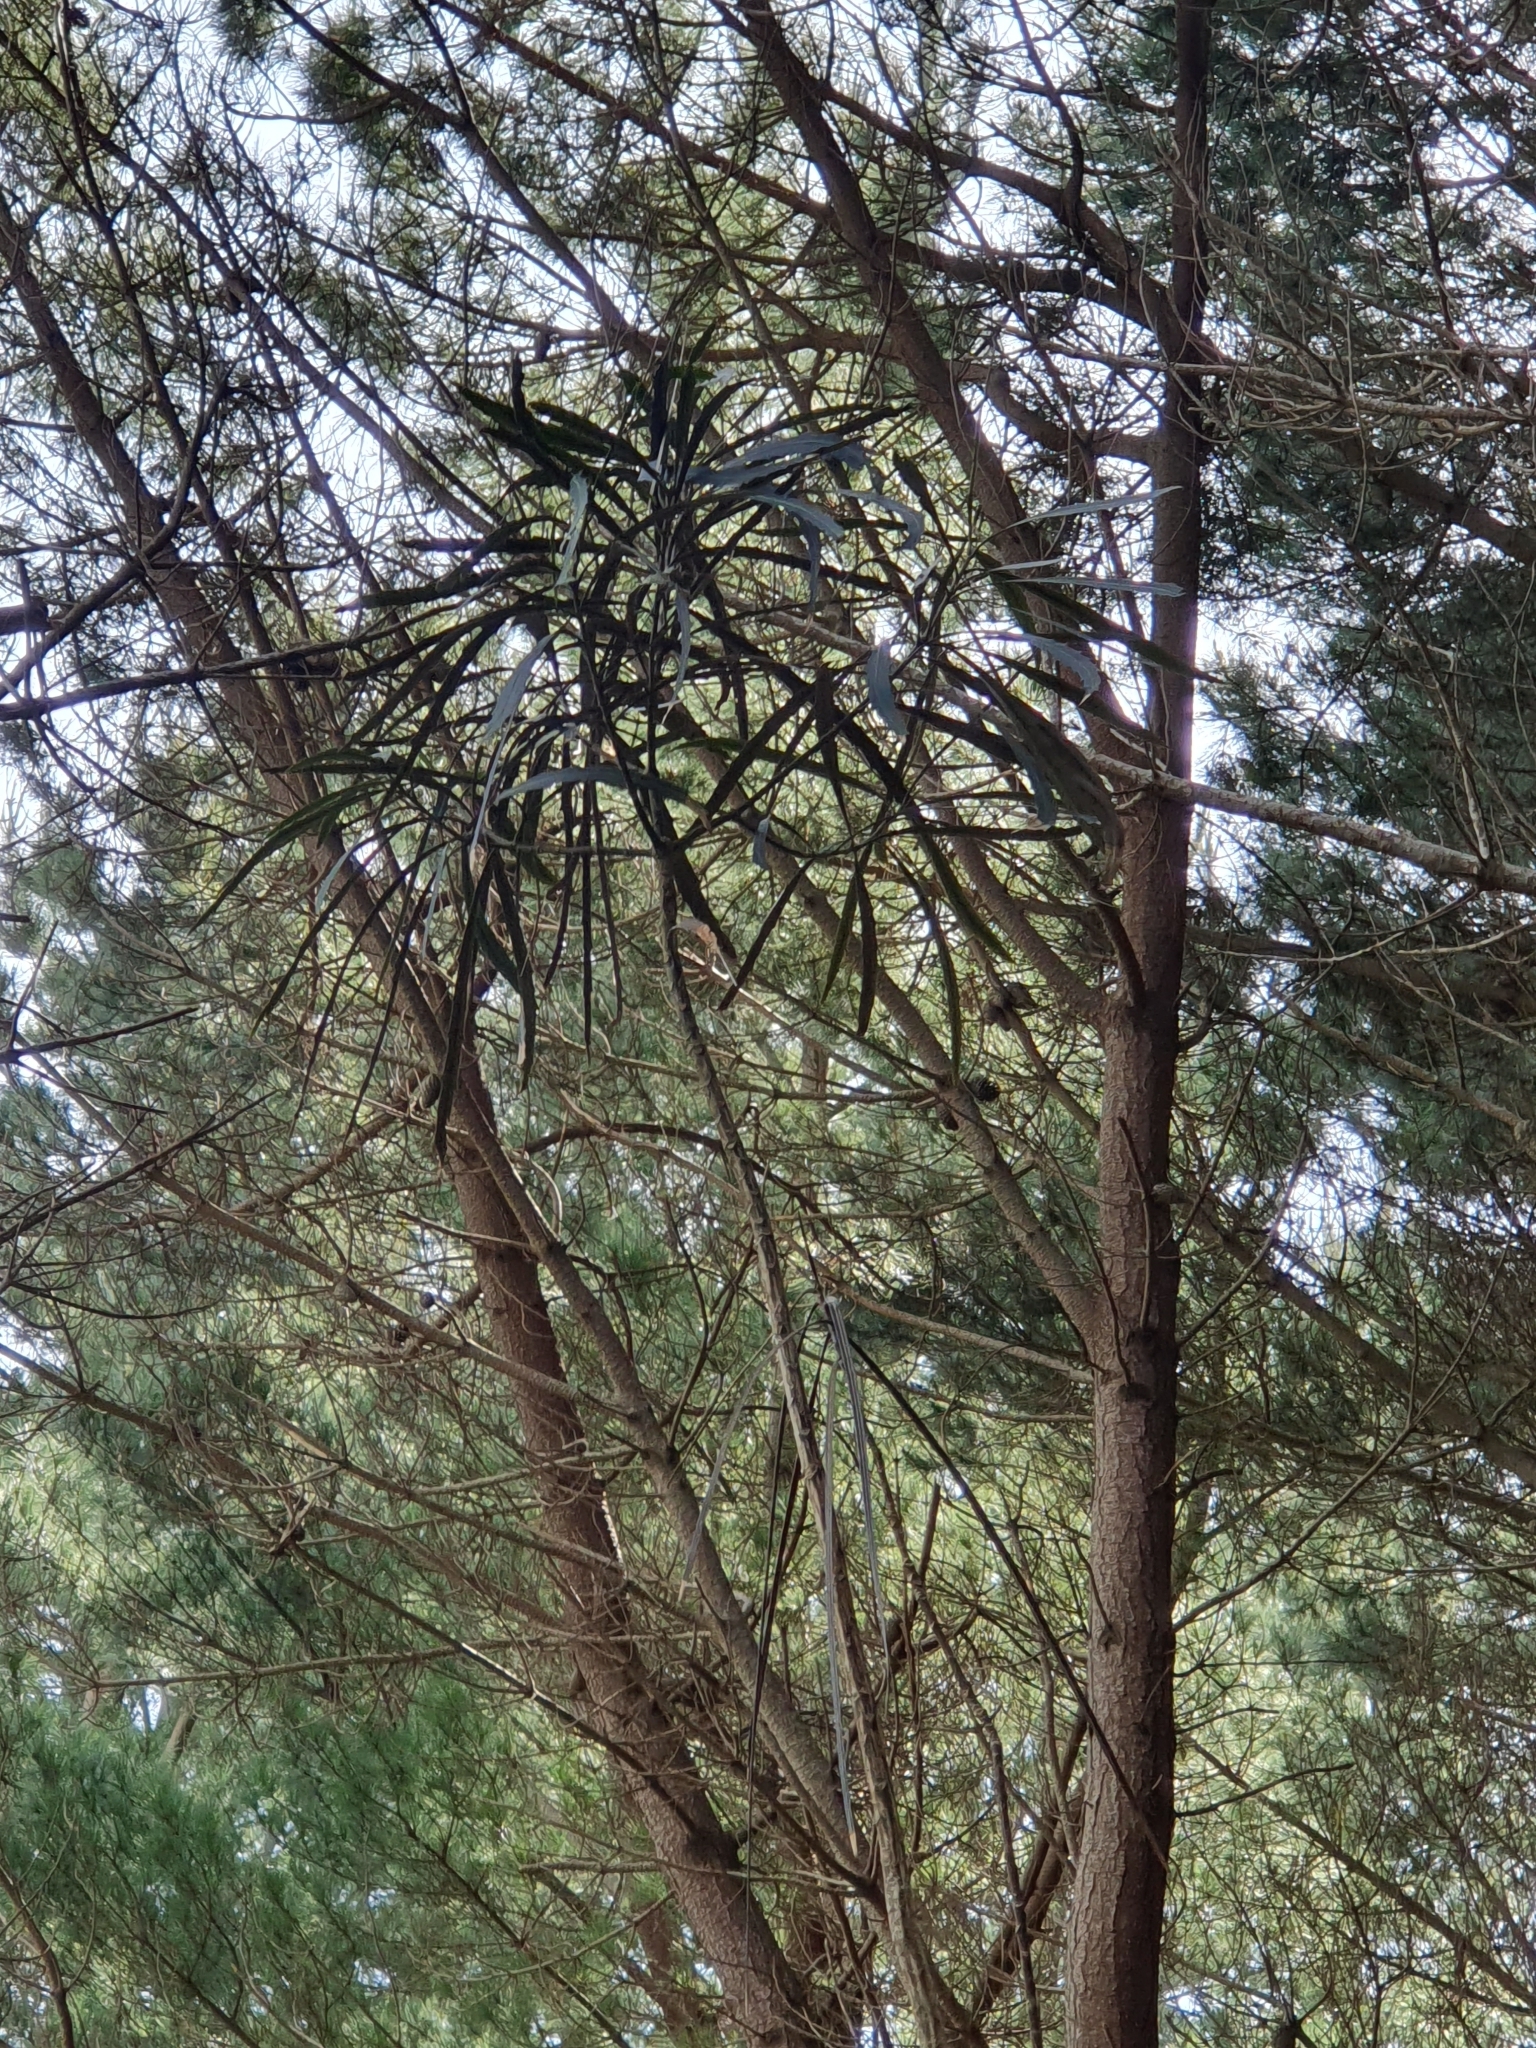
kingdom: Plantae
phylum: Tracheophyta
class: Magnoliopsida
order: Apiales
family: Araliaceae
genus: Pseudopanax
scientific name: Pseudopanax crassifolius
